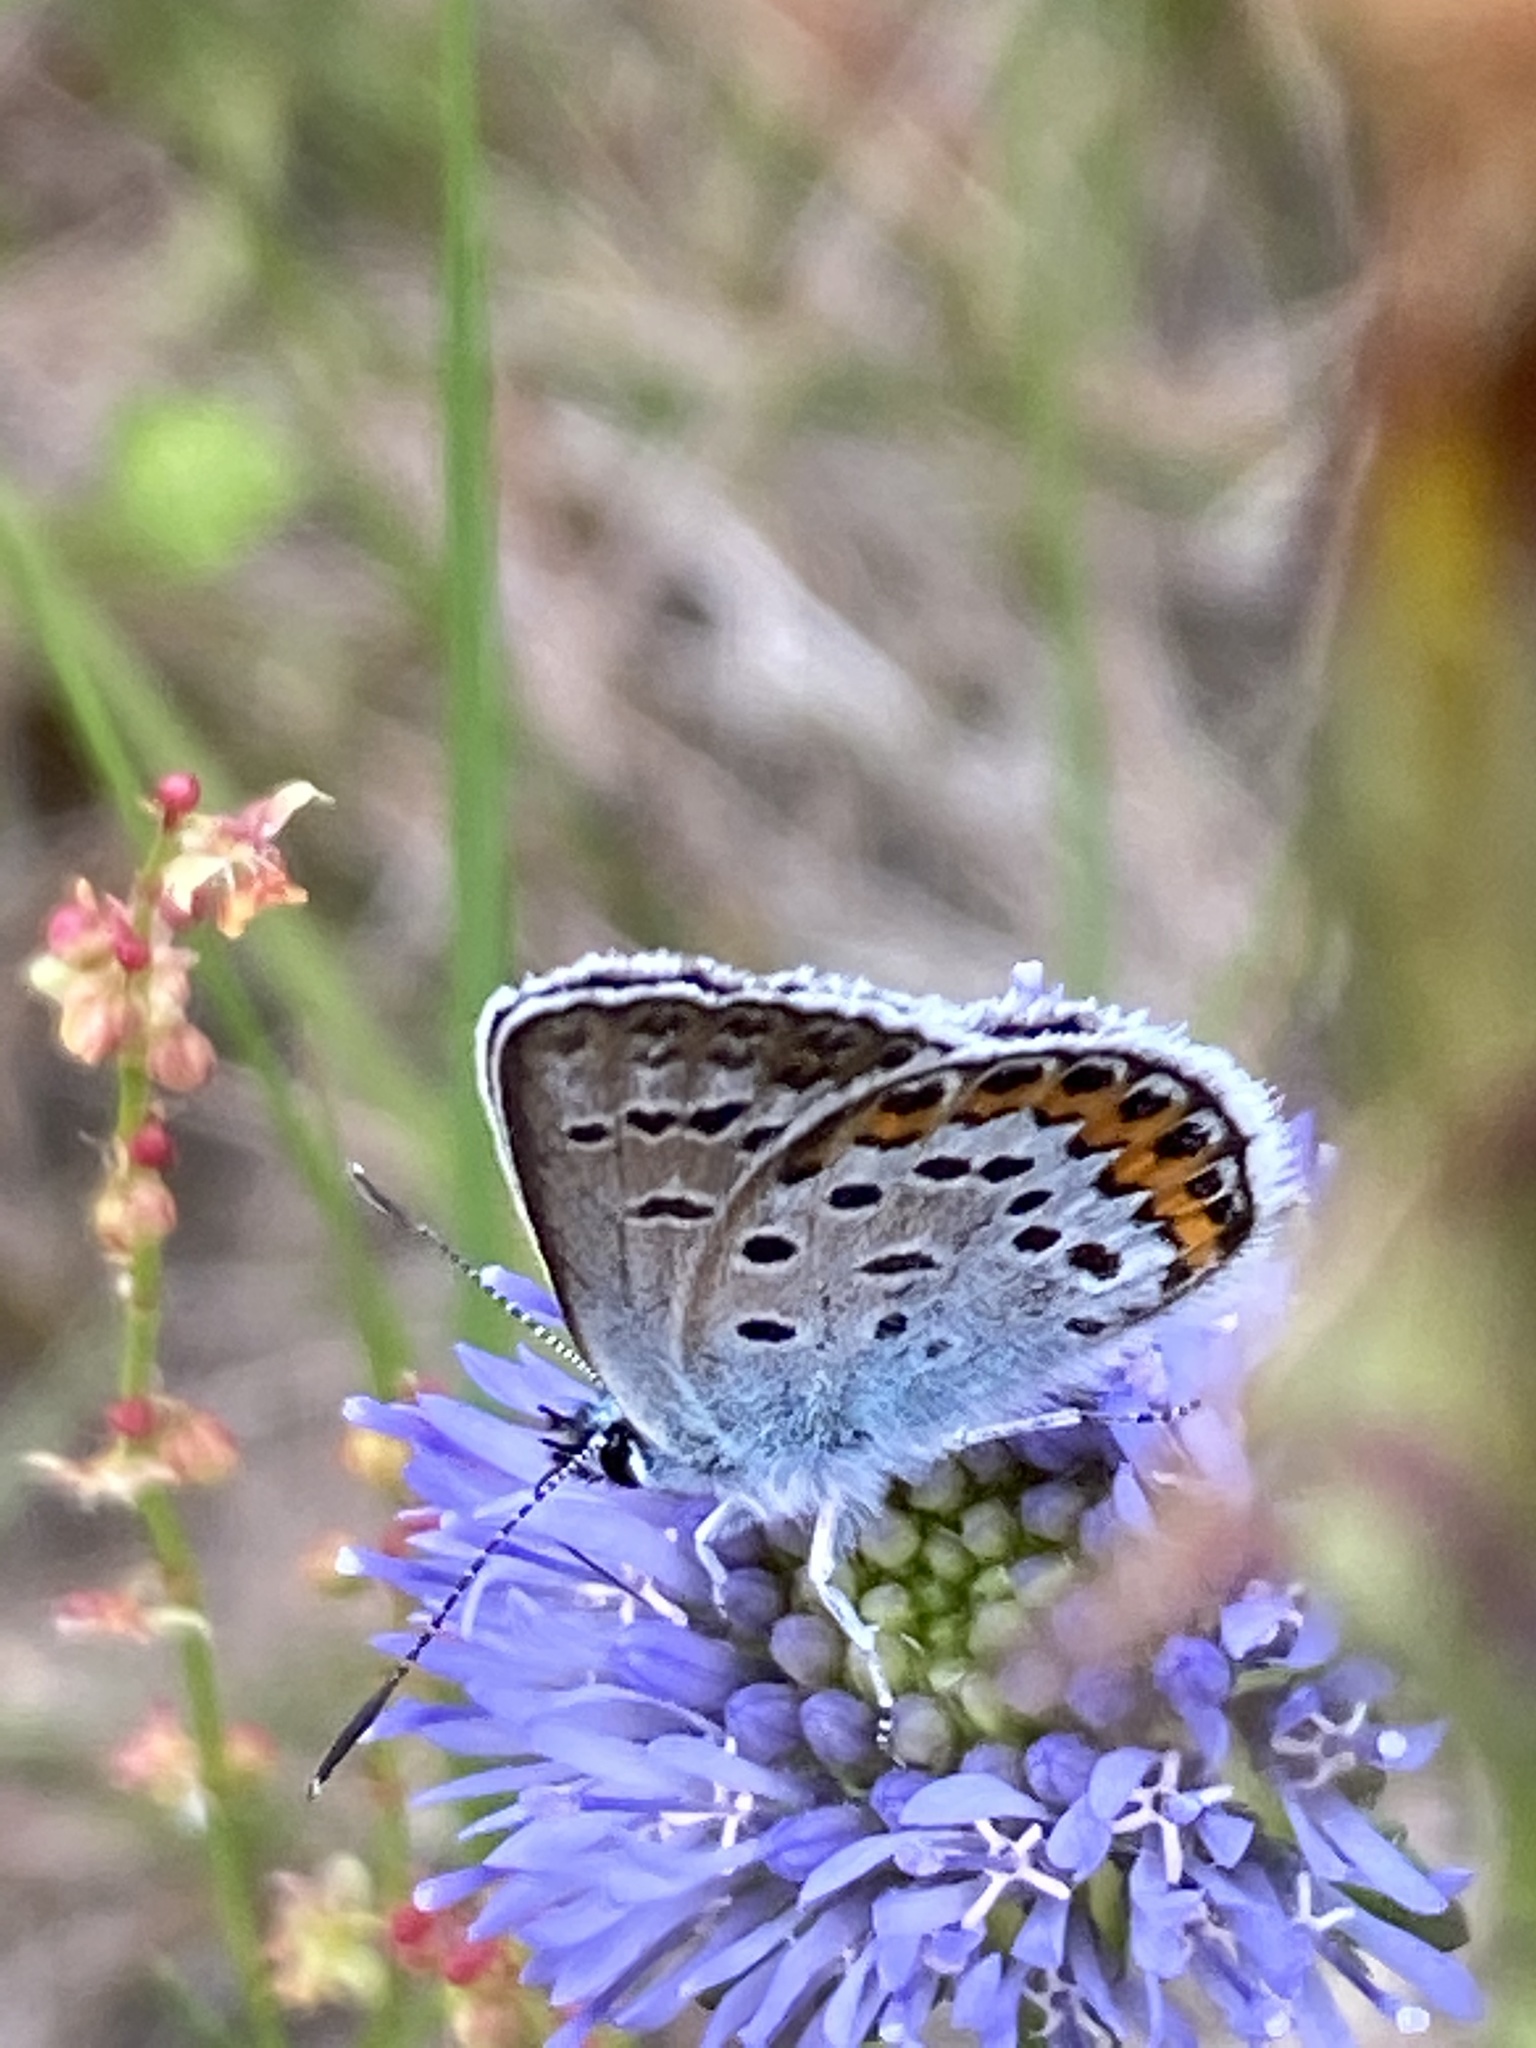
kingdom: Animalia
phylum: Arthropoda
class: Insecta
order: Lepidoptera
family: Lycaenidae
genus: Plebejus
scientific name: Plebejus argus
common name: Silver-studded blue
